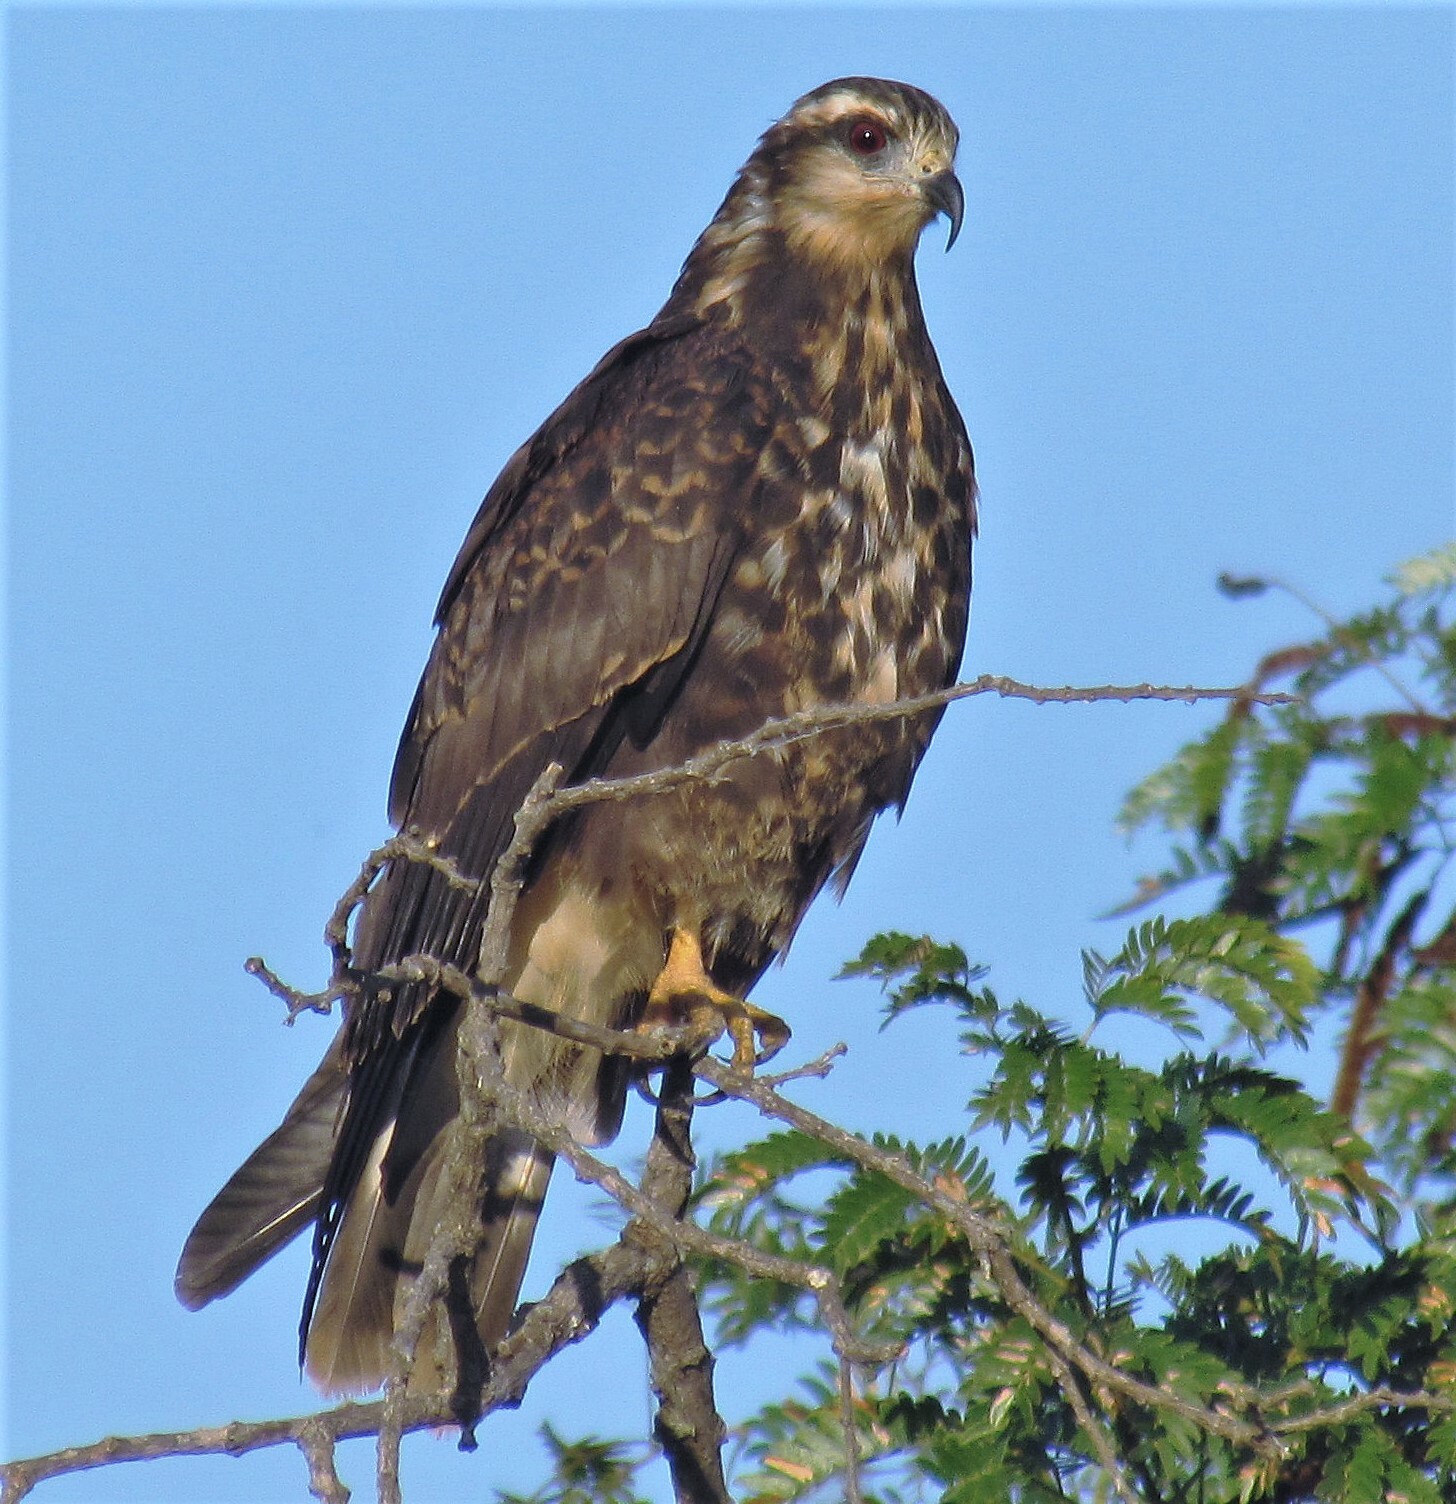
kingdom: Animalia
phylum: Chordata
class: Aves
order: Accipitriformes
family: Accipitridae
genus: Rostrhamus
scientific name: Rostrhamus sociabilis
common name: Snail kite
